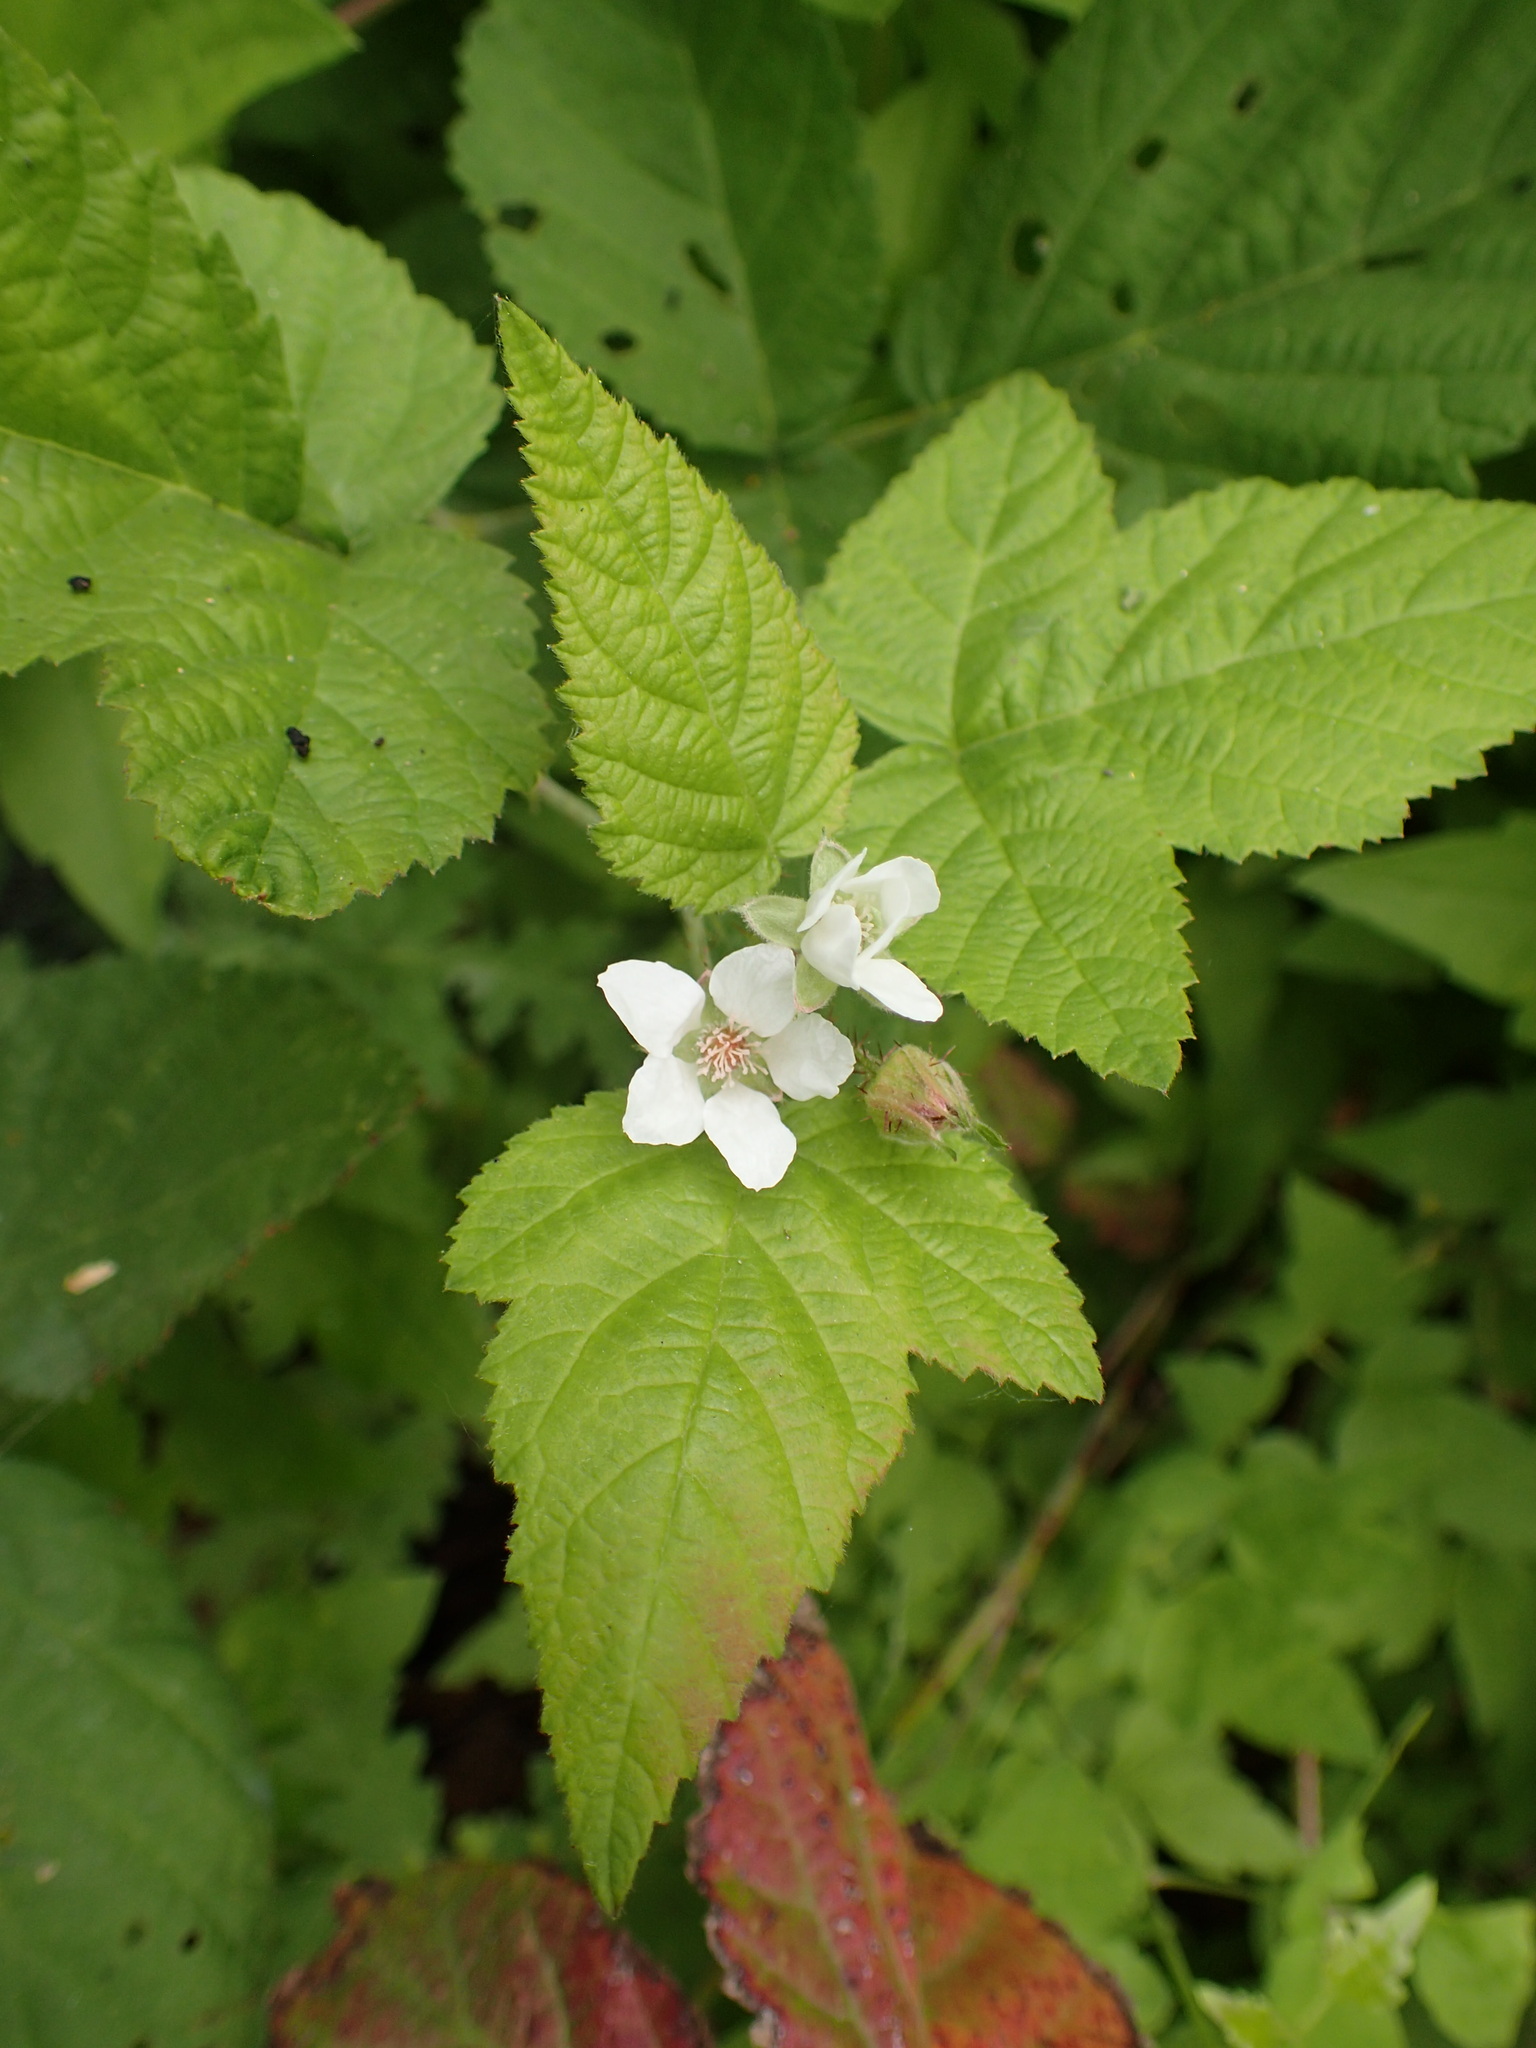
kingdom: Plantae
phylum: Tracheophyta
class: Magnoliopsida
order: Rosales
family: Rosaceae
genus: Rubus
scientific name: Rubus ursinus
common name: Pacific blackberry
